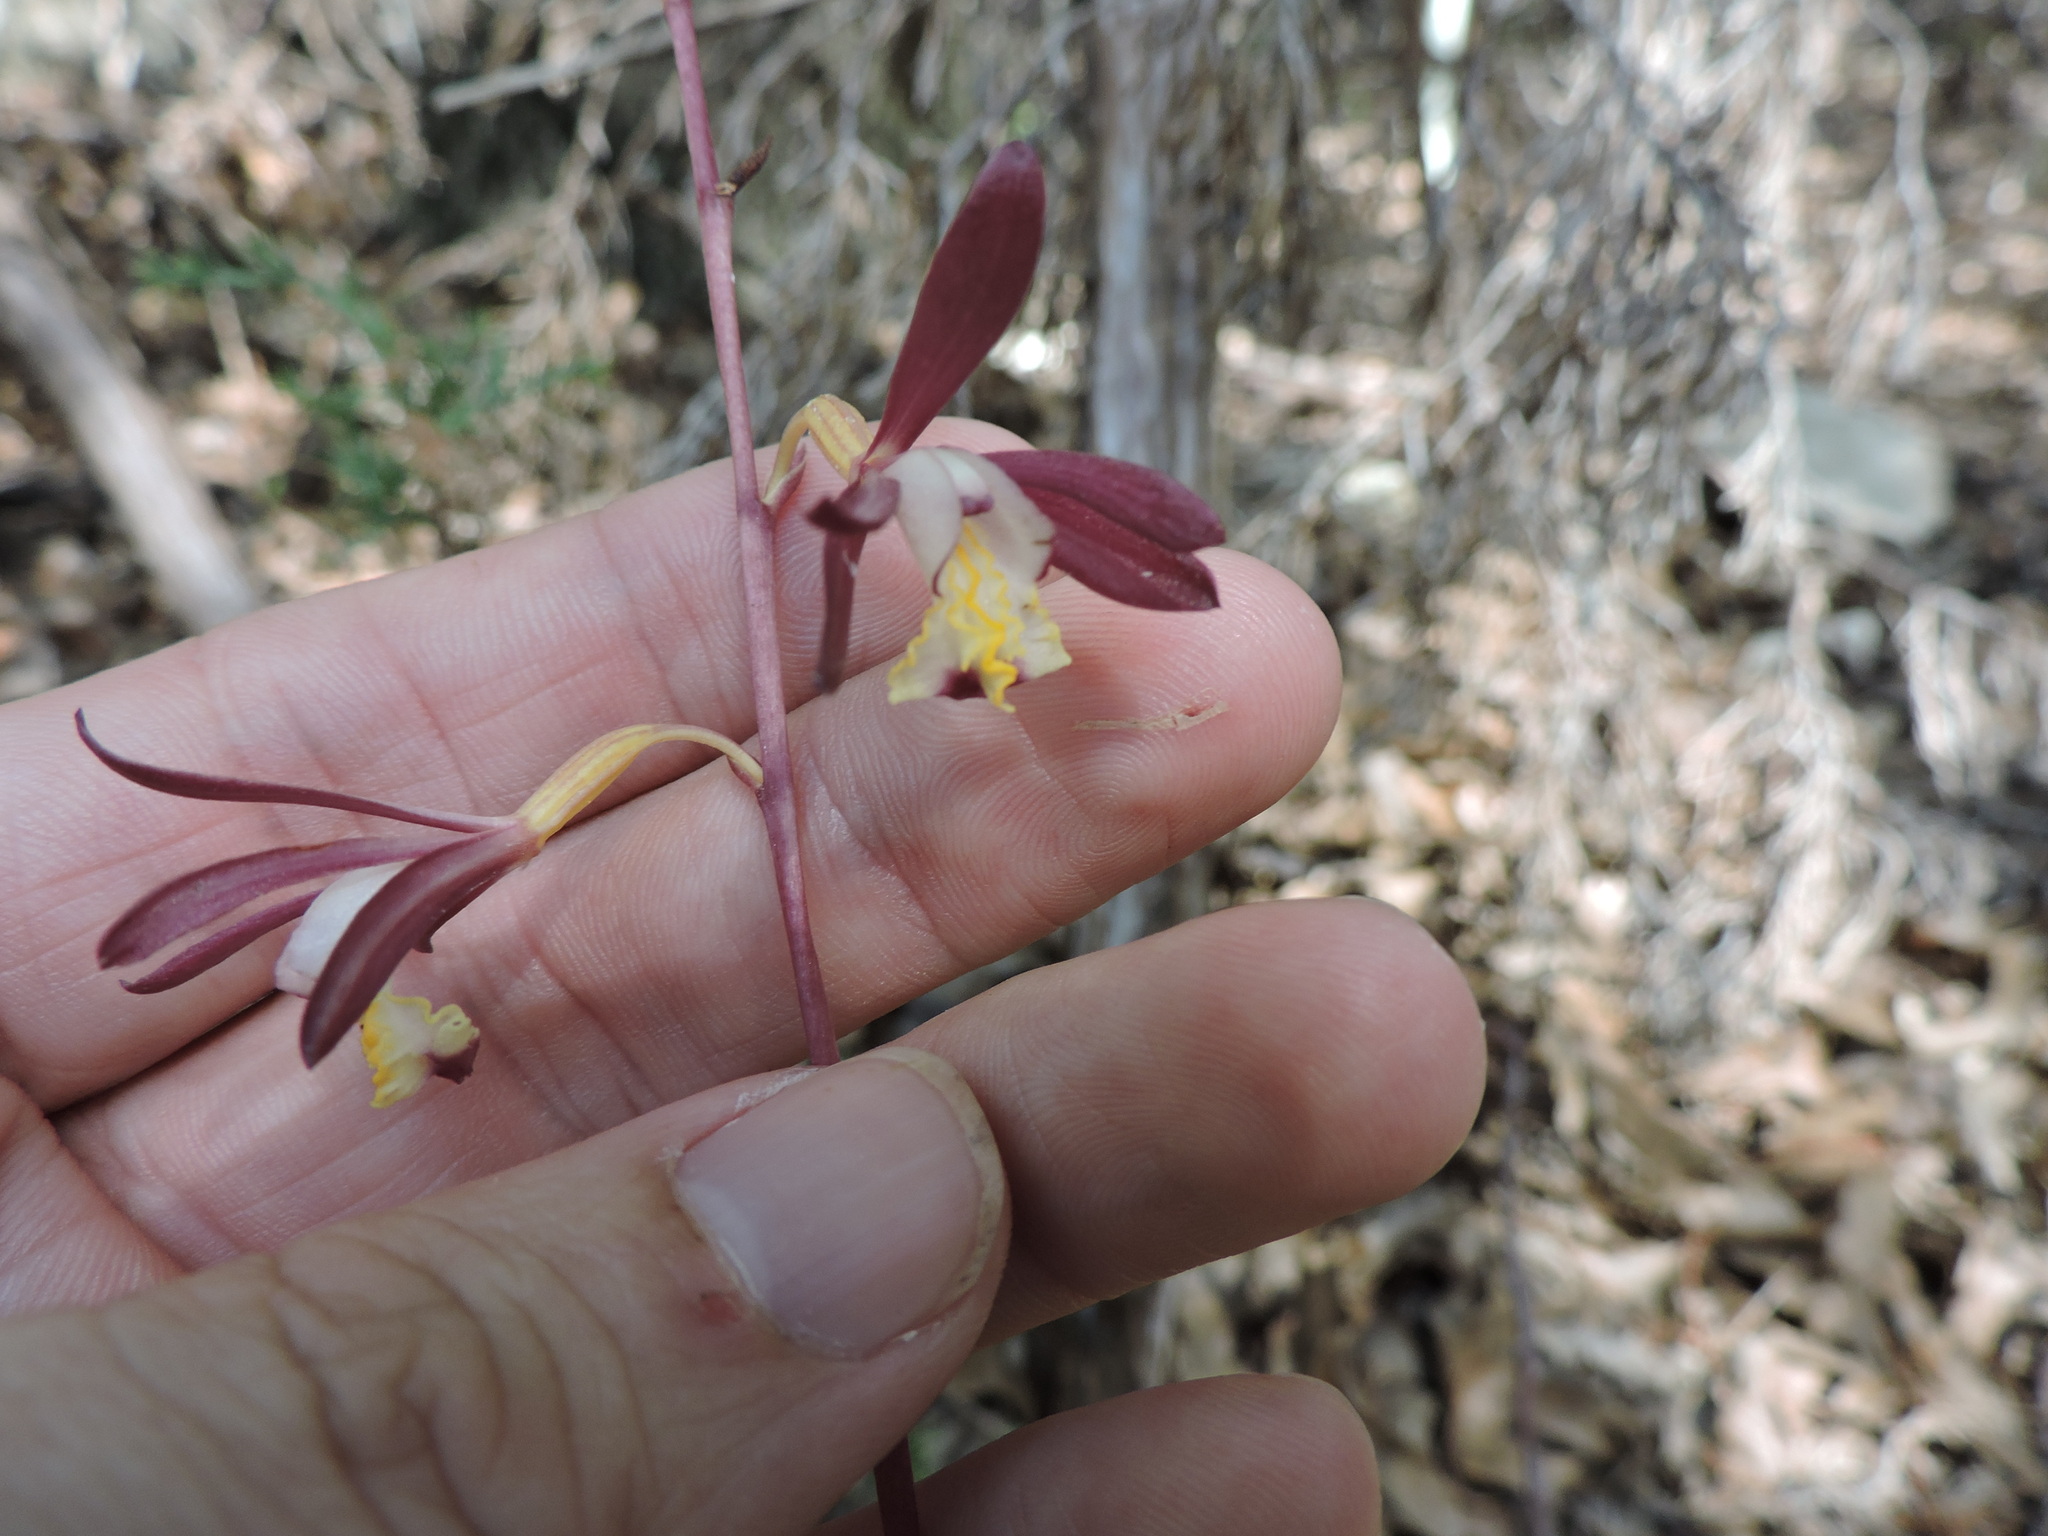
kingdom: Plantae
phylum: Tracheophyta
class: Liliopsida
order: Asparagales
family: Orchidaceae
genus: Bletia
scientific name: Bletia warnockii
